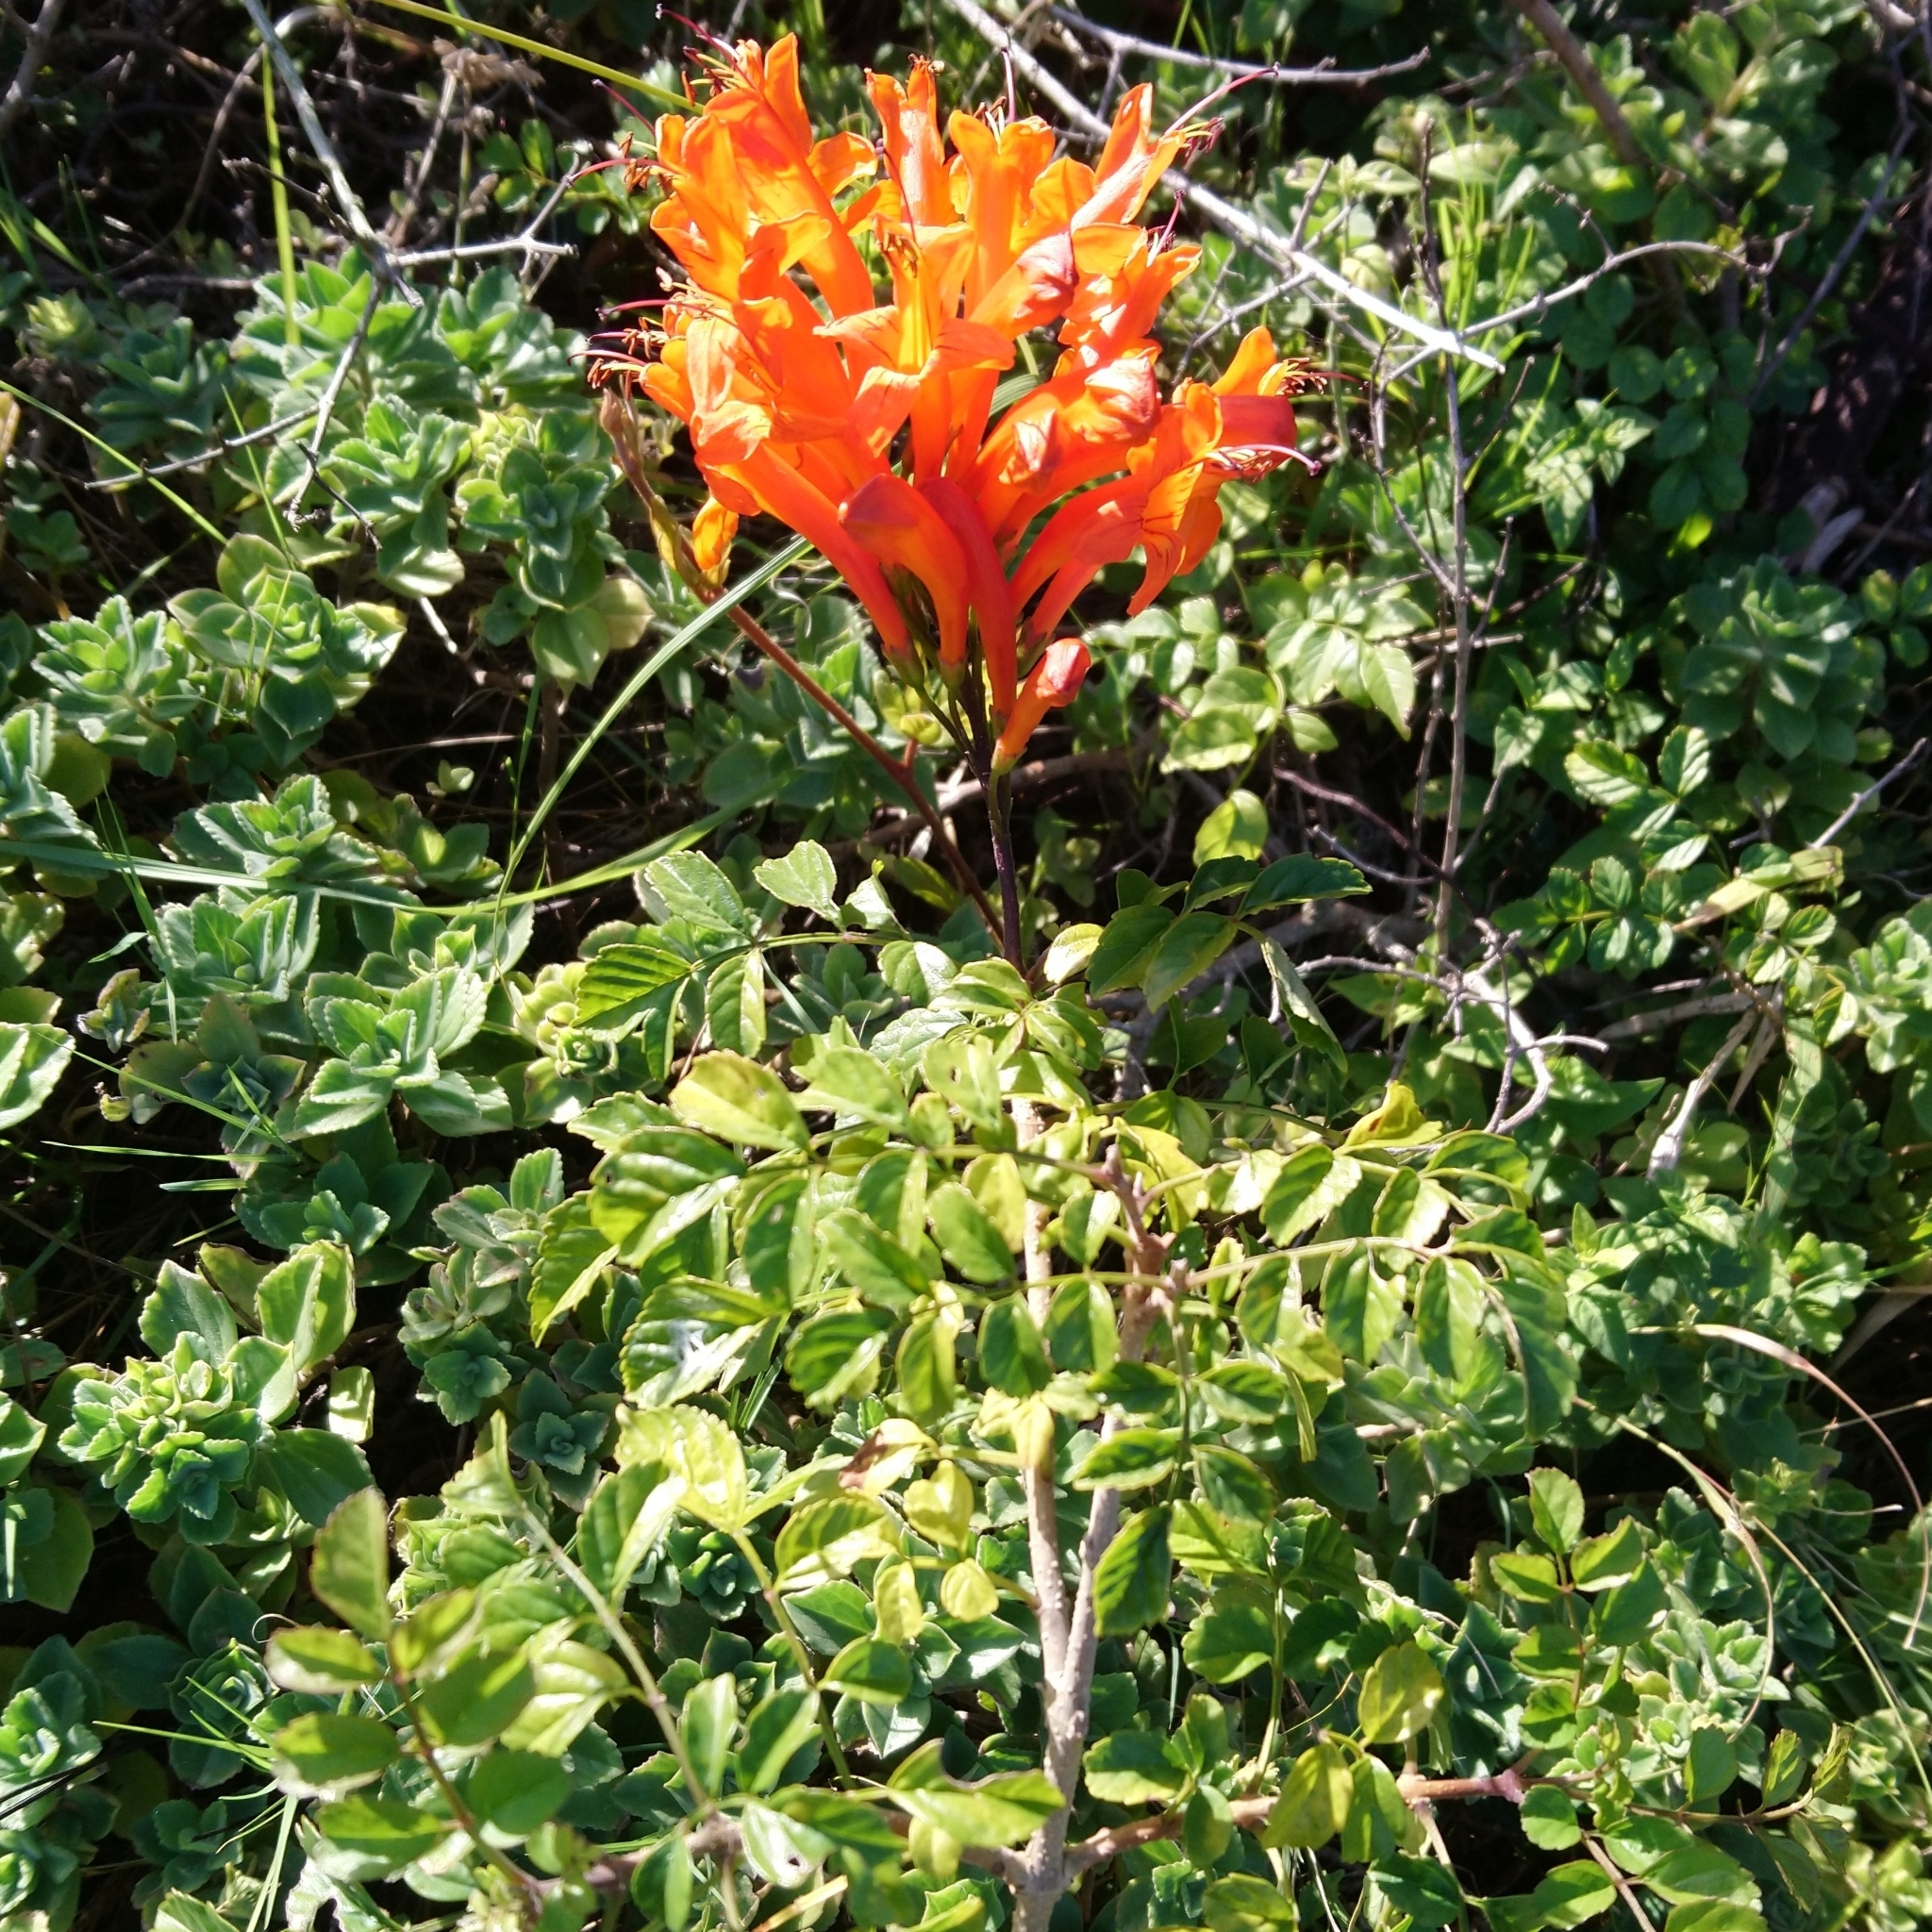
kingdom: Plantae
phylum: Tracheophyta
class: Magnoliopsida
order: Lamiales
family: Bignoniaceae
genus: Tecomaria
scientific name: Tecomaria capensis
